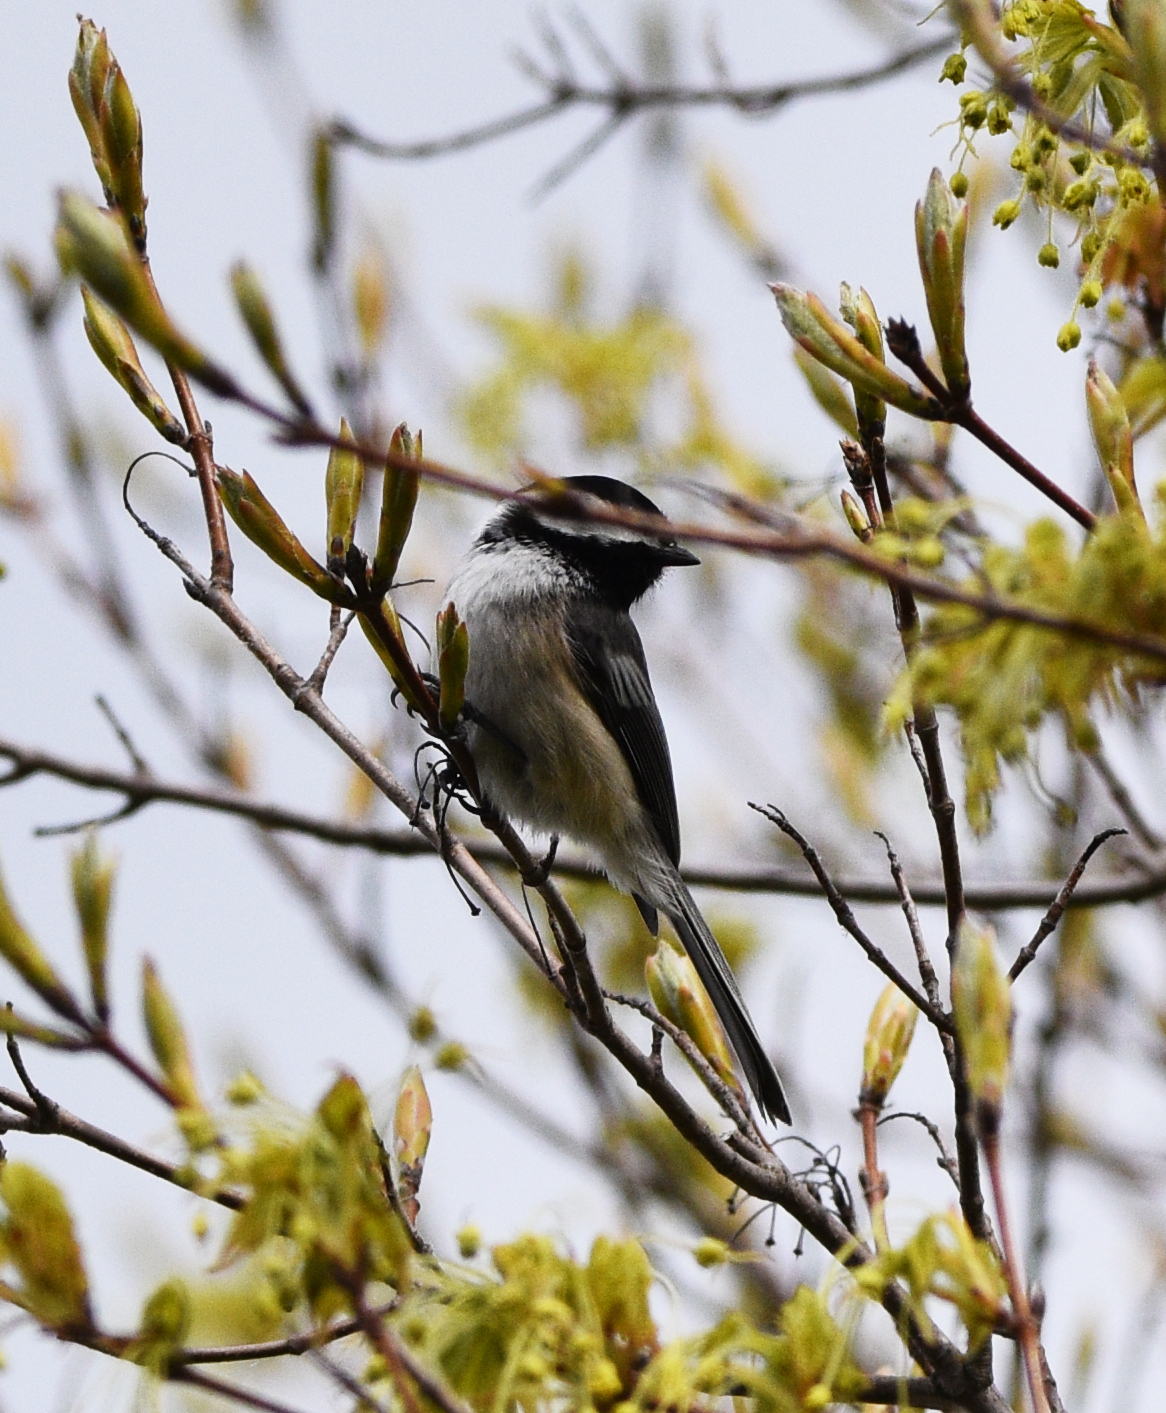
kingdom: Animalia
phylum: Chordata
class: Aves
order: Passeriformes
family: Paridae
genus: Poecile
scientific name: Poecile atricapillus
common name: Black-capped chickadee
